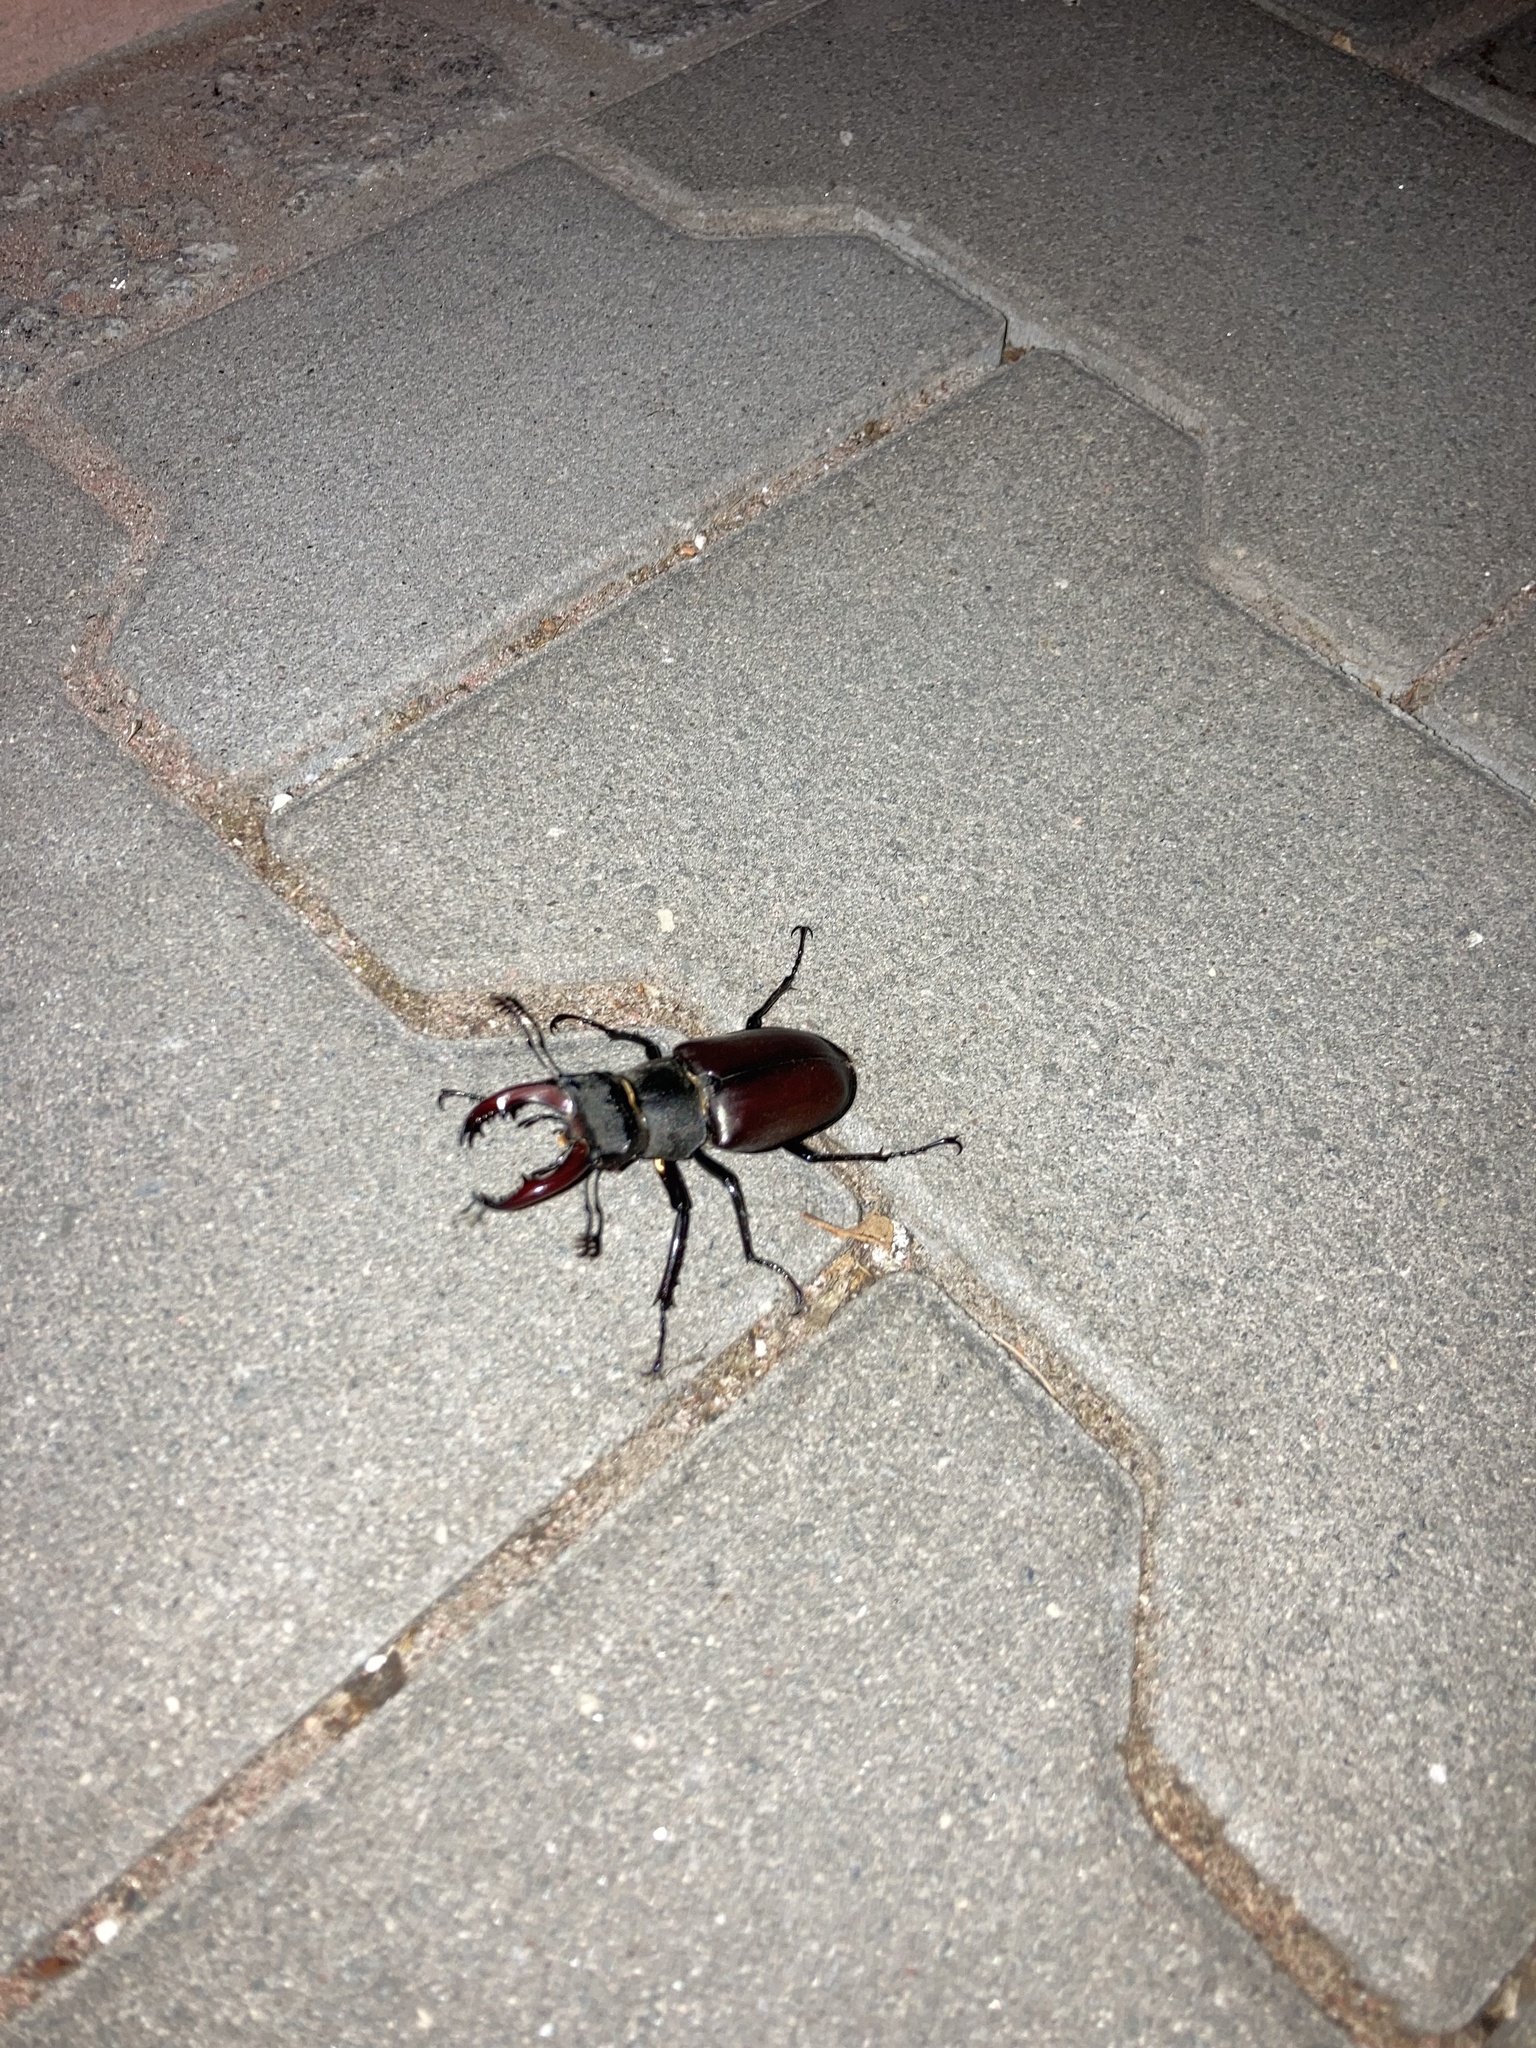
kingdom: Animalia
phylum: Arthropoda
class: Insecta
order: Coleoptera
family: Lucanidae
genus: Lucanus
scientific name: Lucanus cervus
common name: Stag beetle
